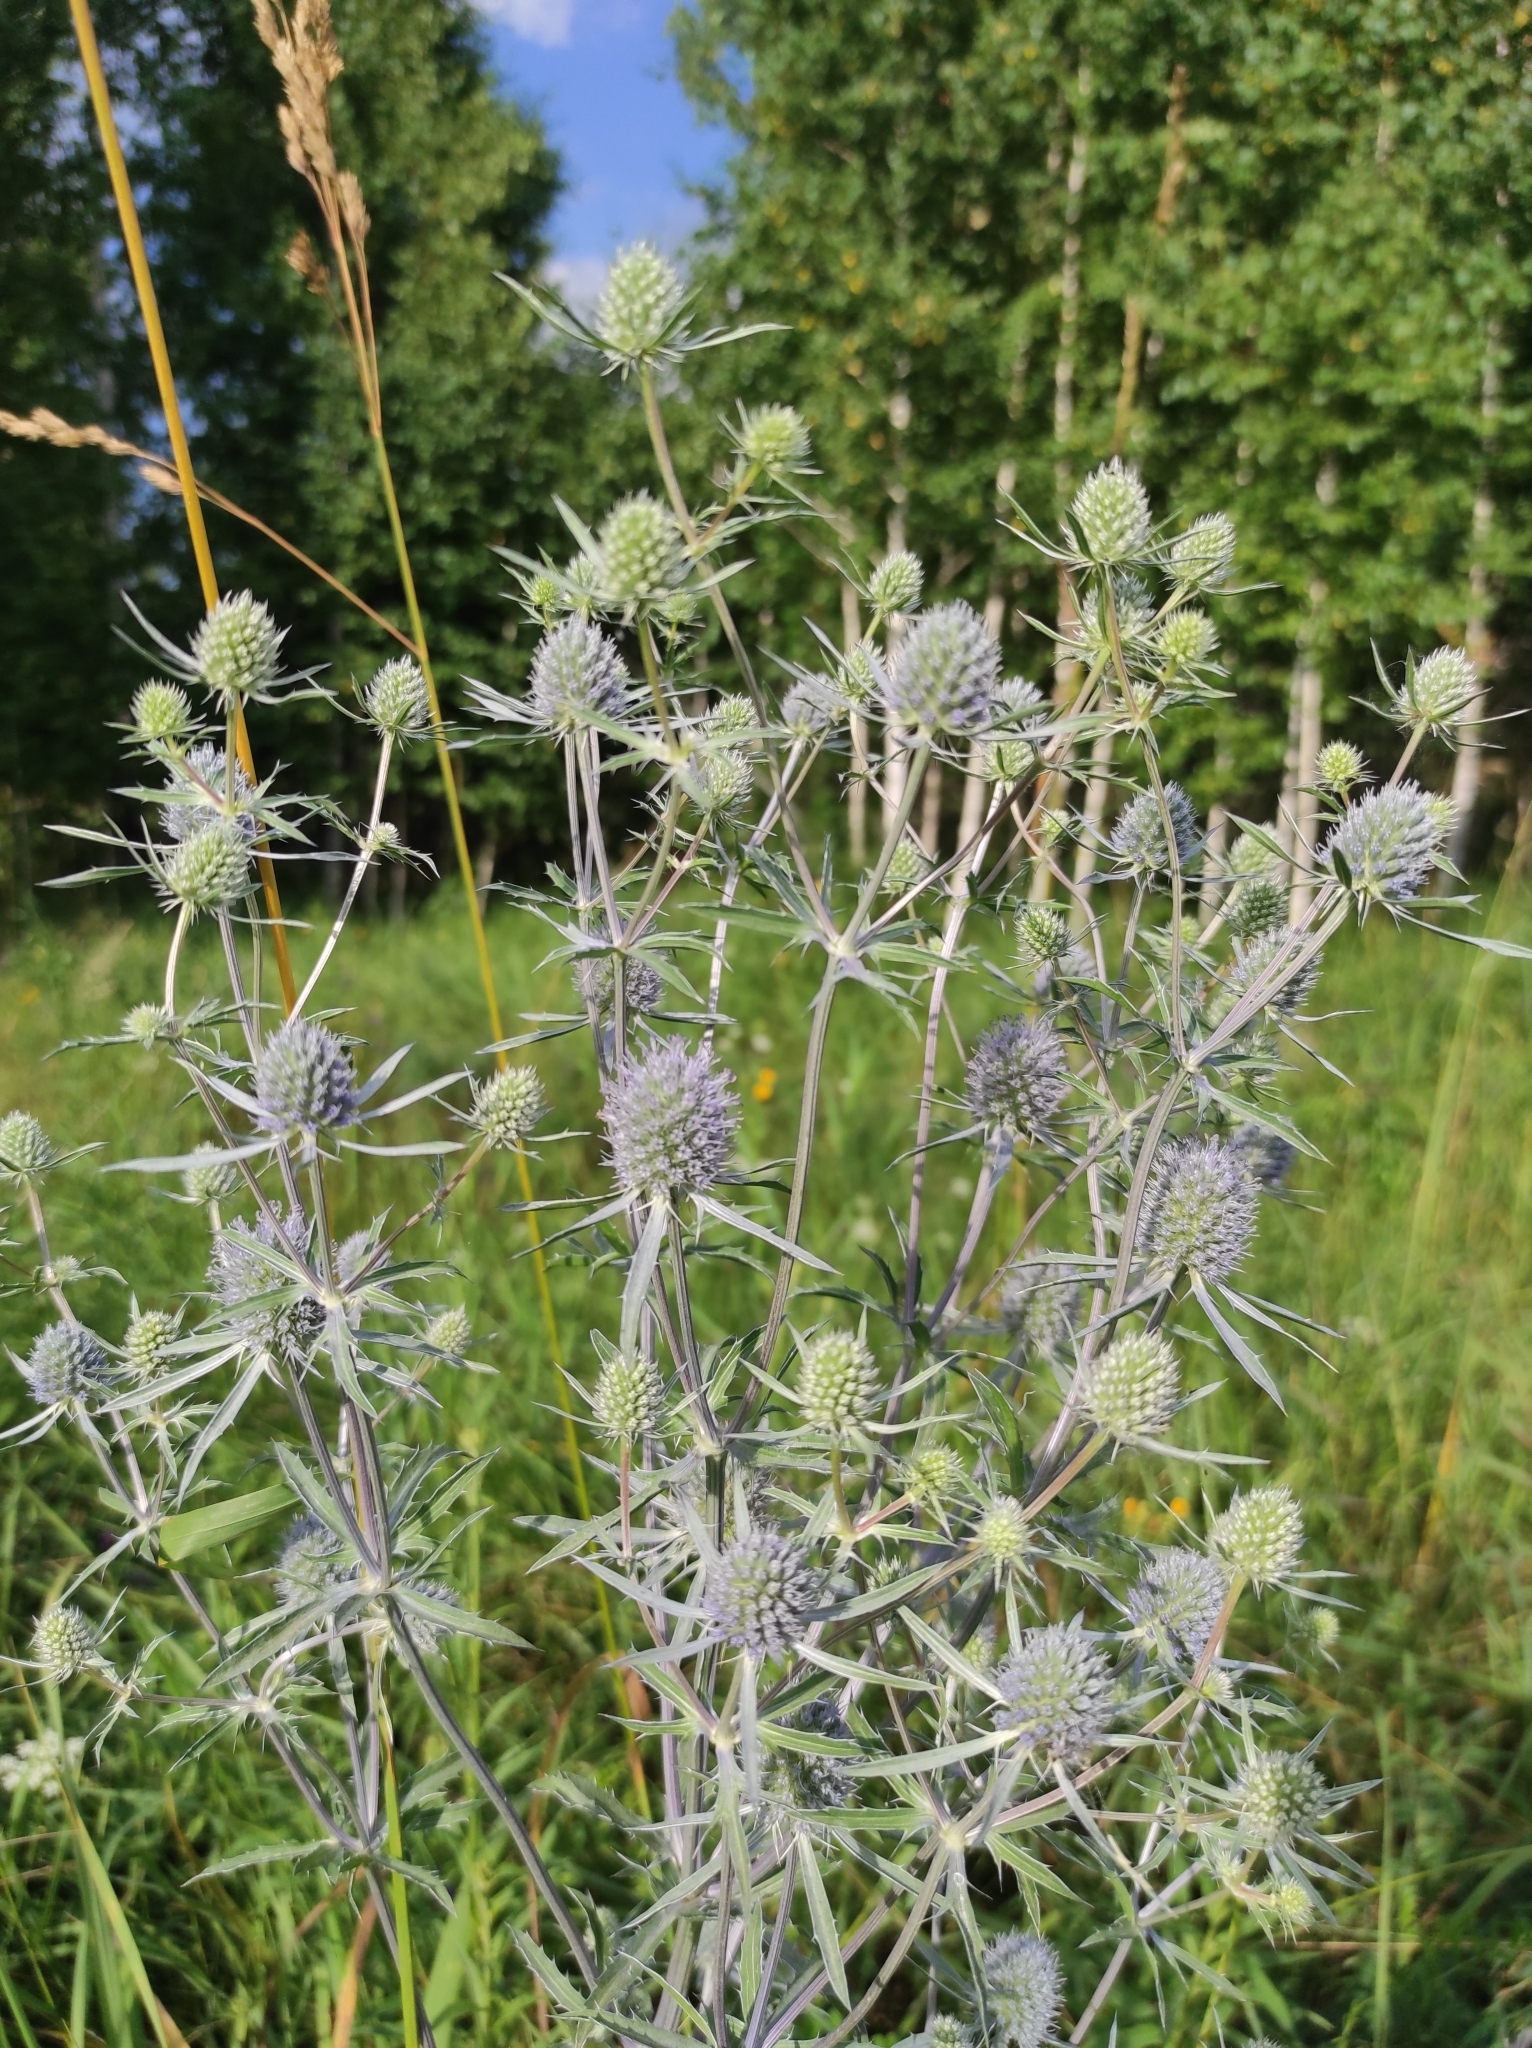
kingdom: Plantae
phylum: Tracheophyta
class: Magnoliopsida
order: Apiales
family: Apiaceae
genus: Eryngium
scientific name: Eryngium planum
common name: Blue eryngo
